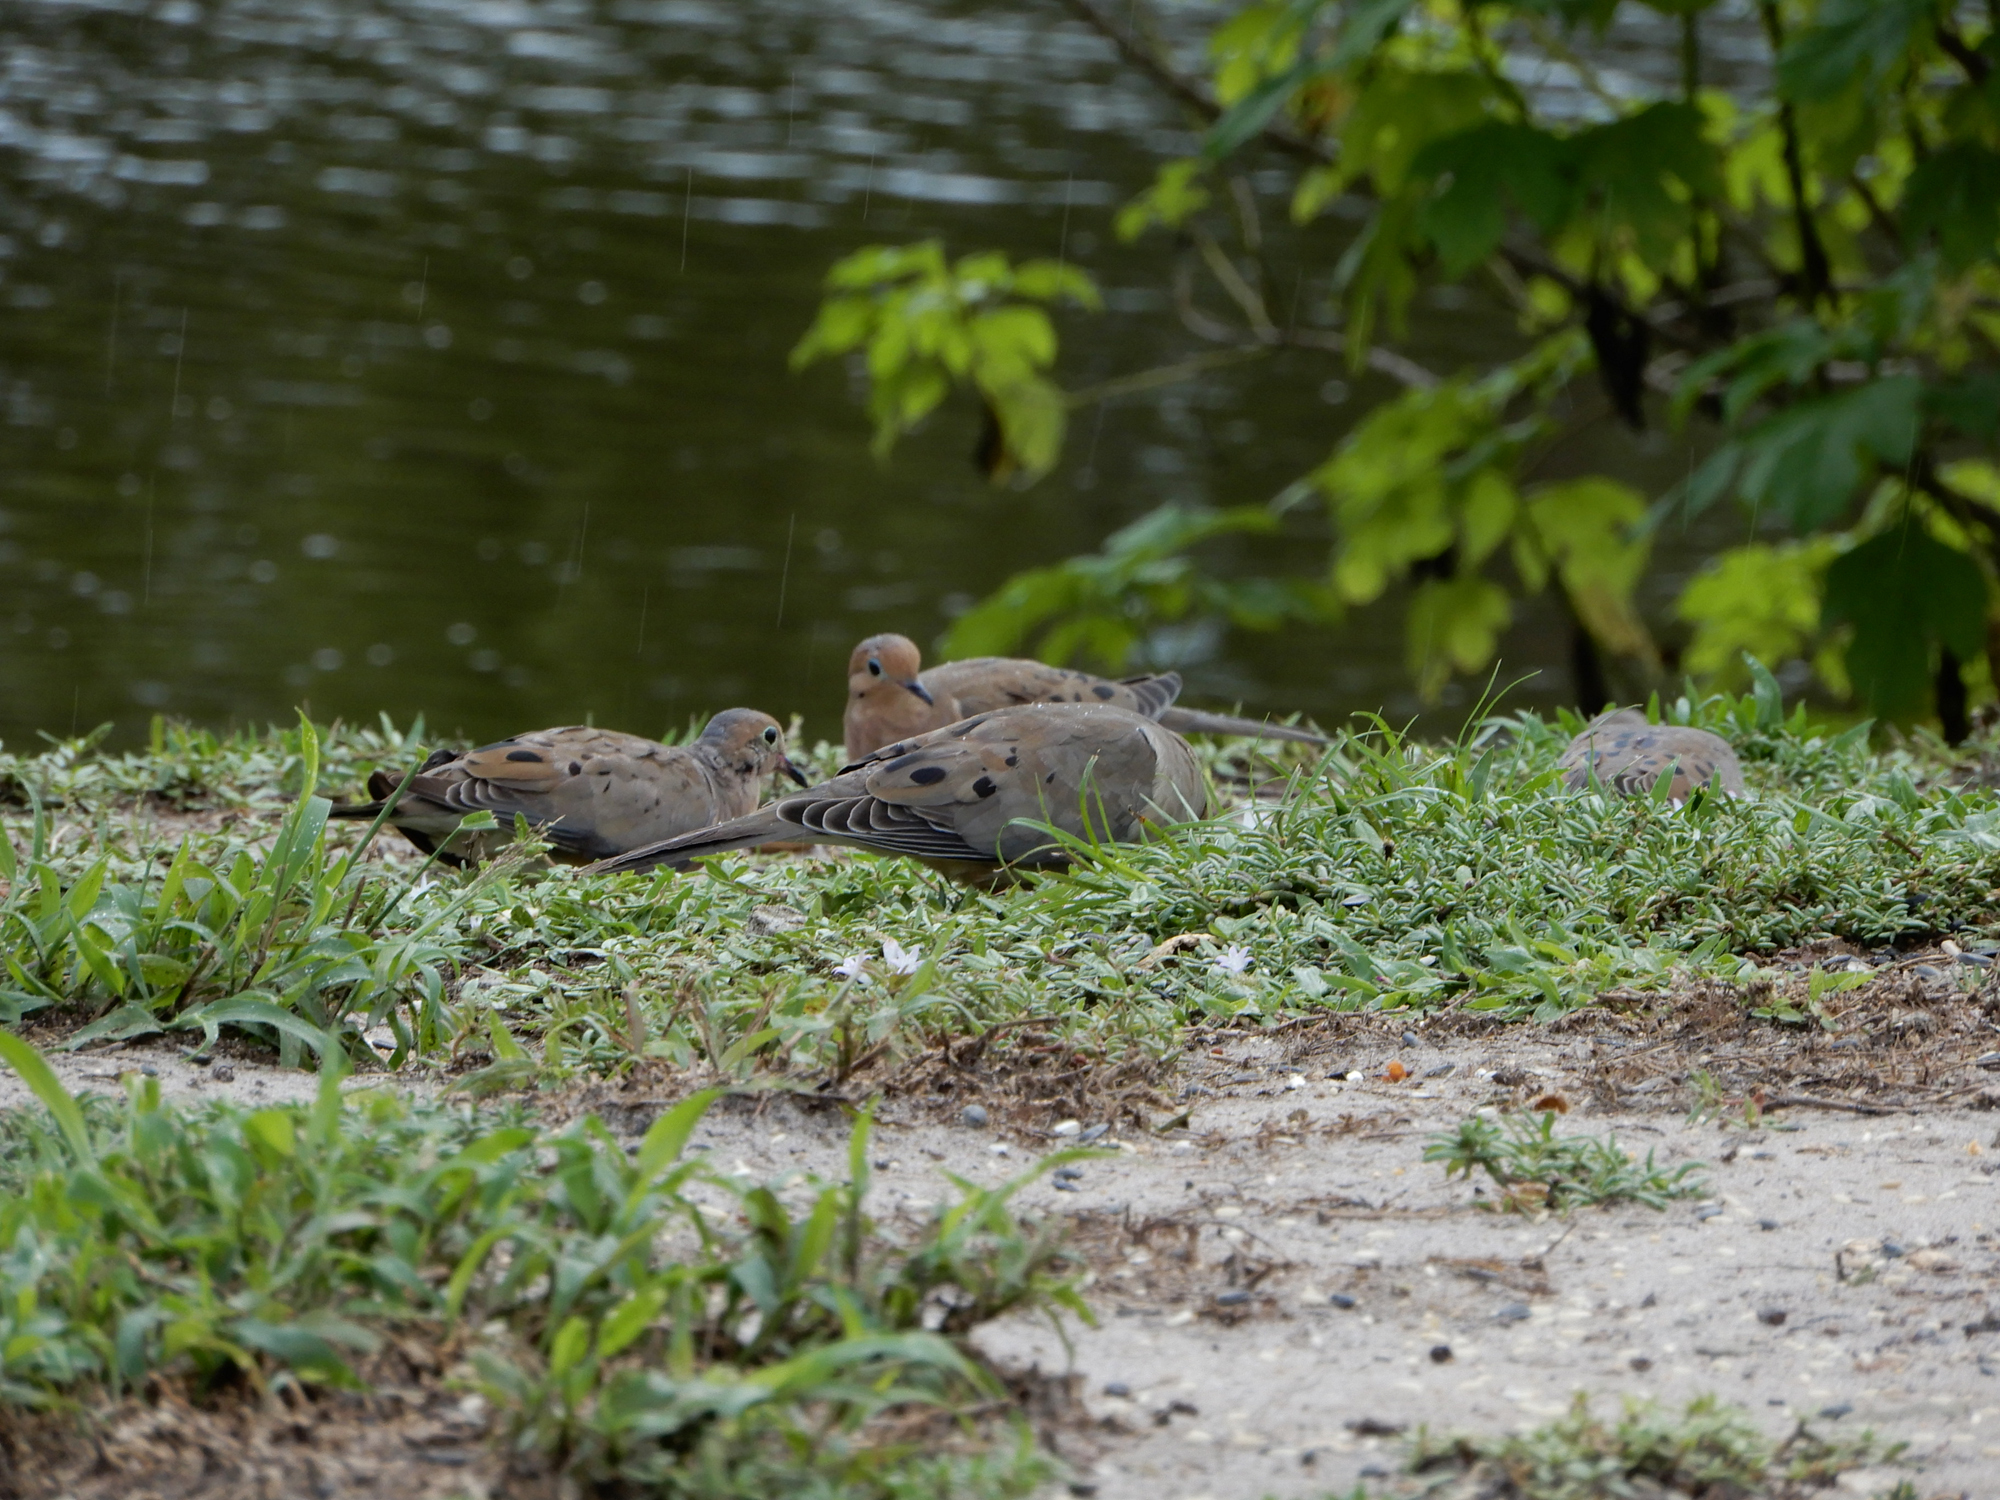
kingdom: Animalia
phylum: Chordata
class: Aves
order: Columbiformes
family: Columbidae
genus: Zenaida
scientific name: Zenaida macroura
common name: Mourning dove
